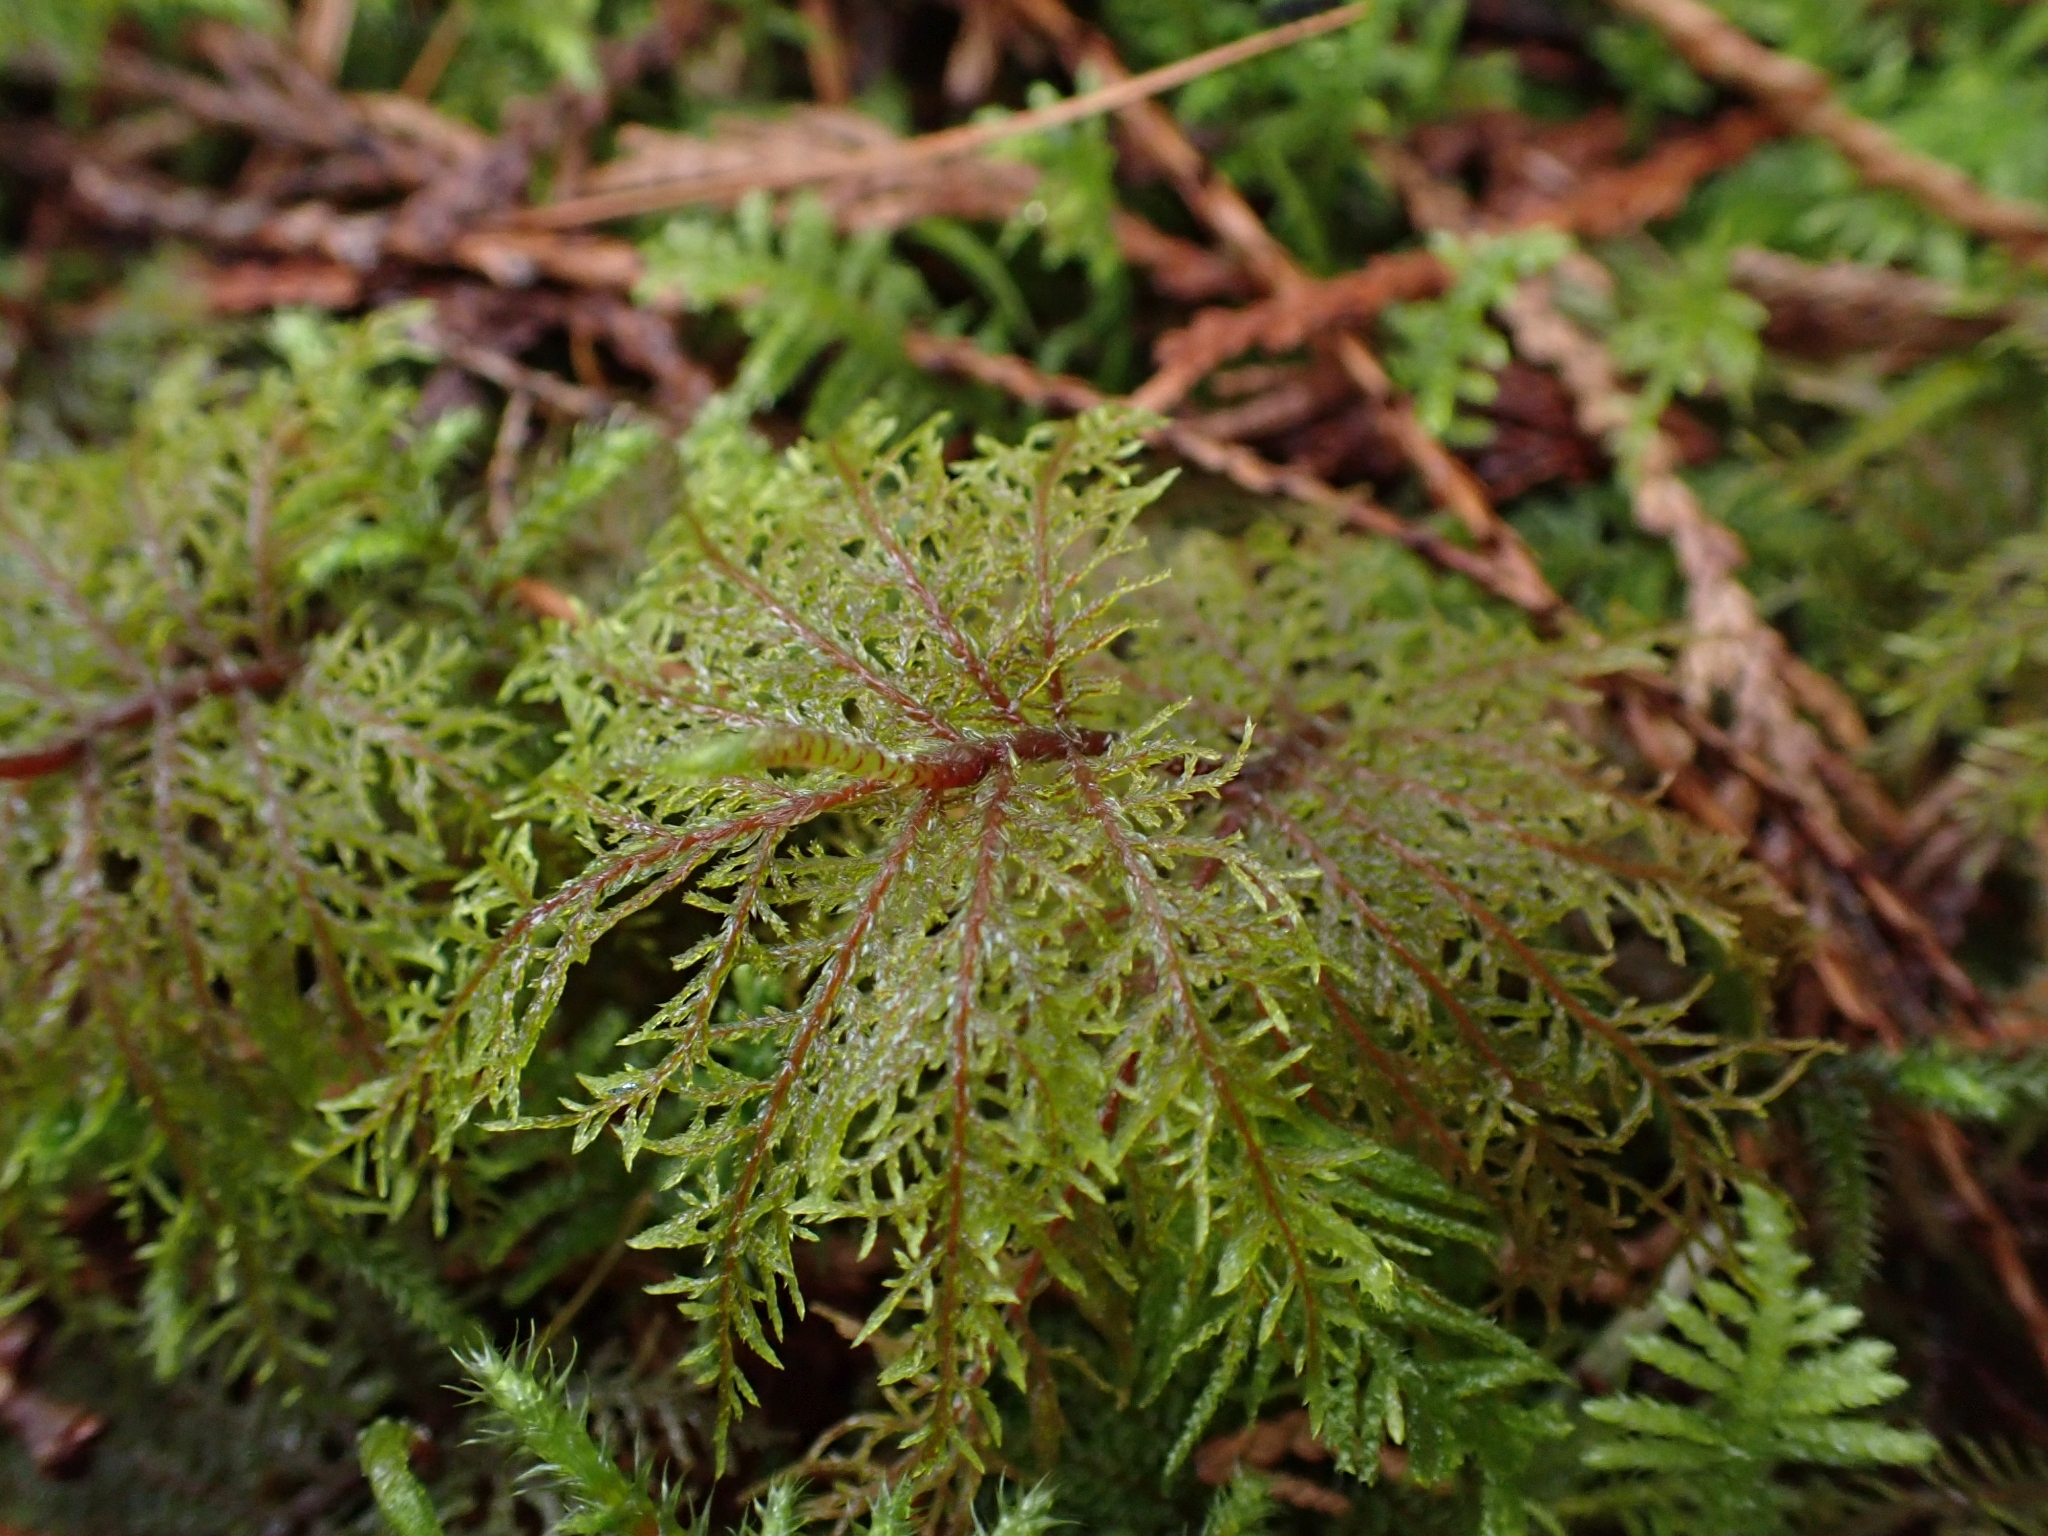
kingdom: Plantae
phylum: Bryophyta
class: Bryopsida
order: Hypnales
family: Hylocomiaceae
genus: Hylocomium
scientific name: Hylocomium splendens
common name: Stairstep moss
